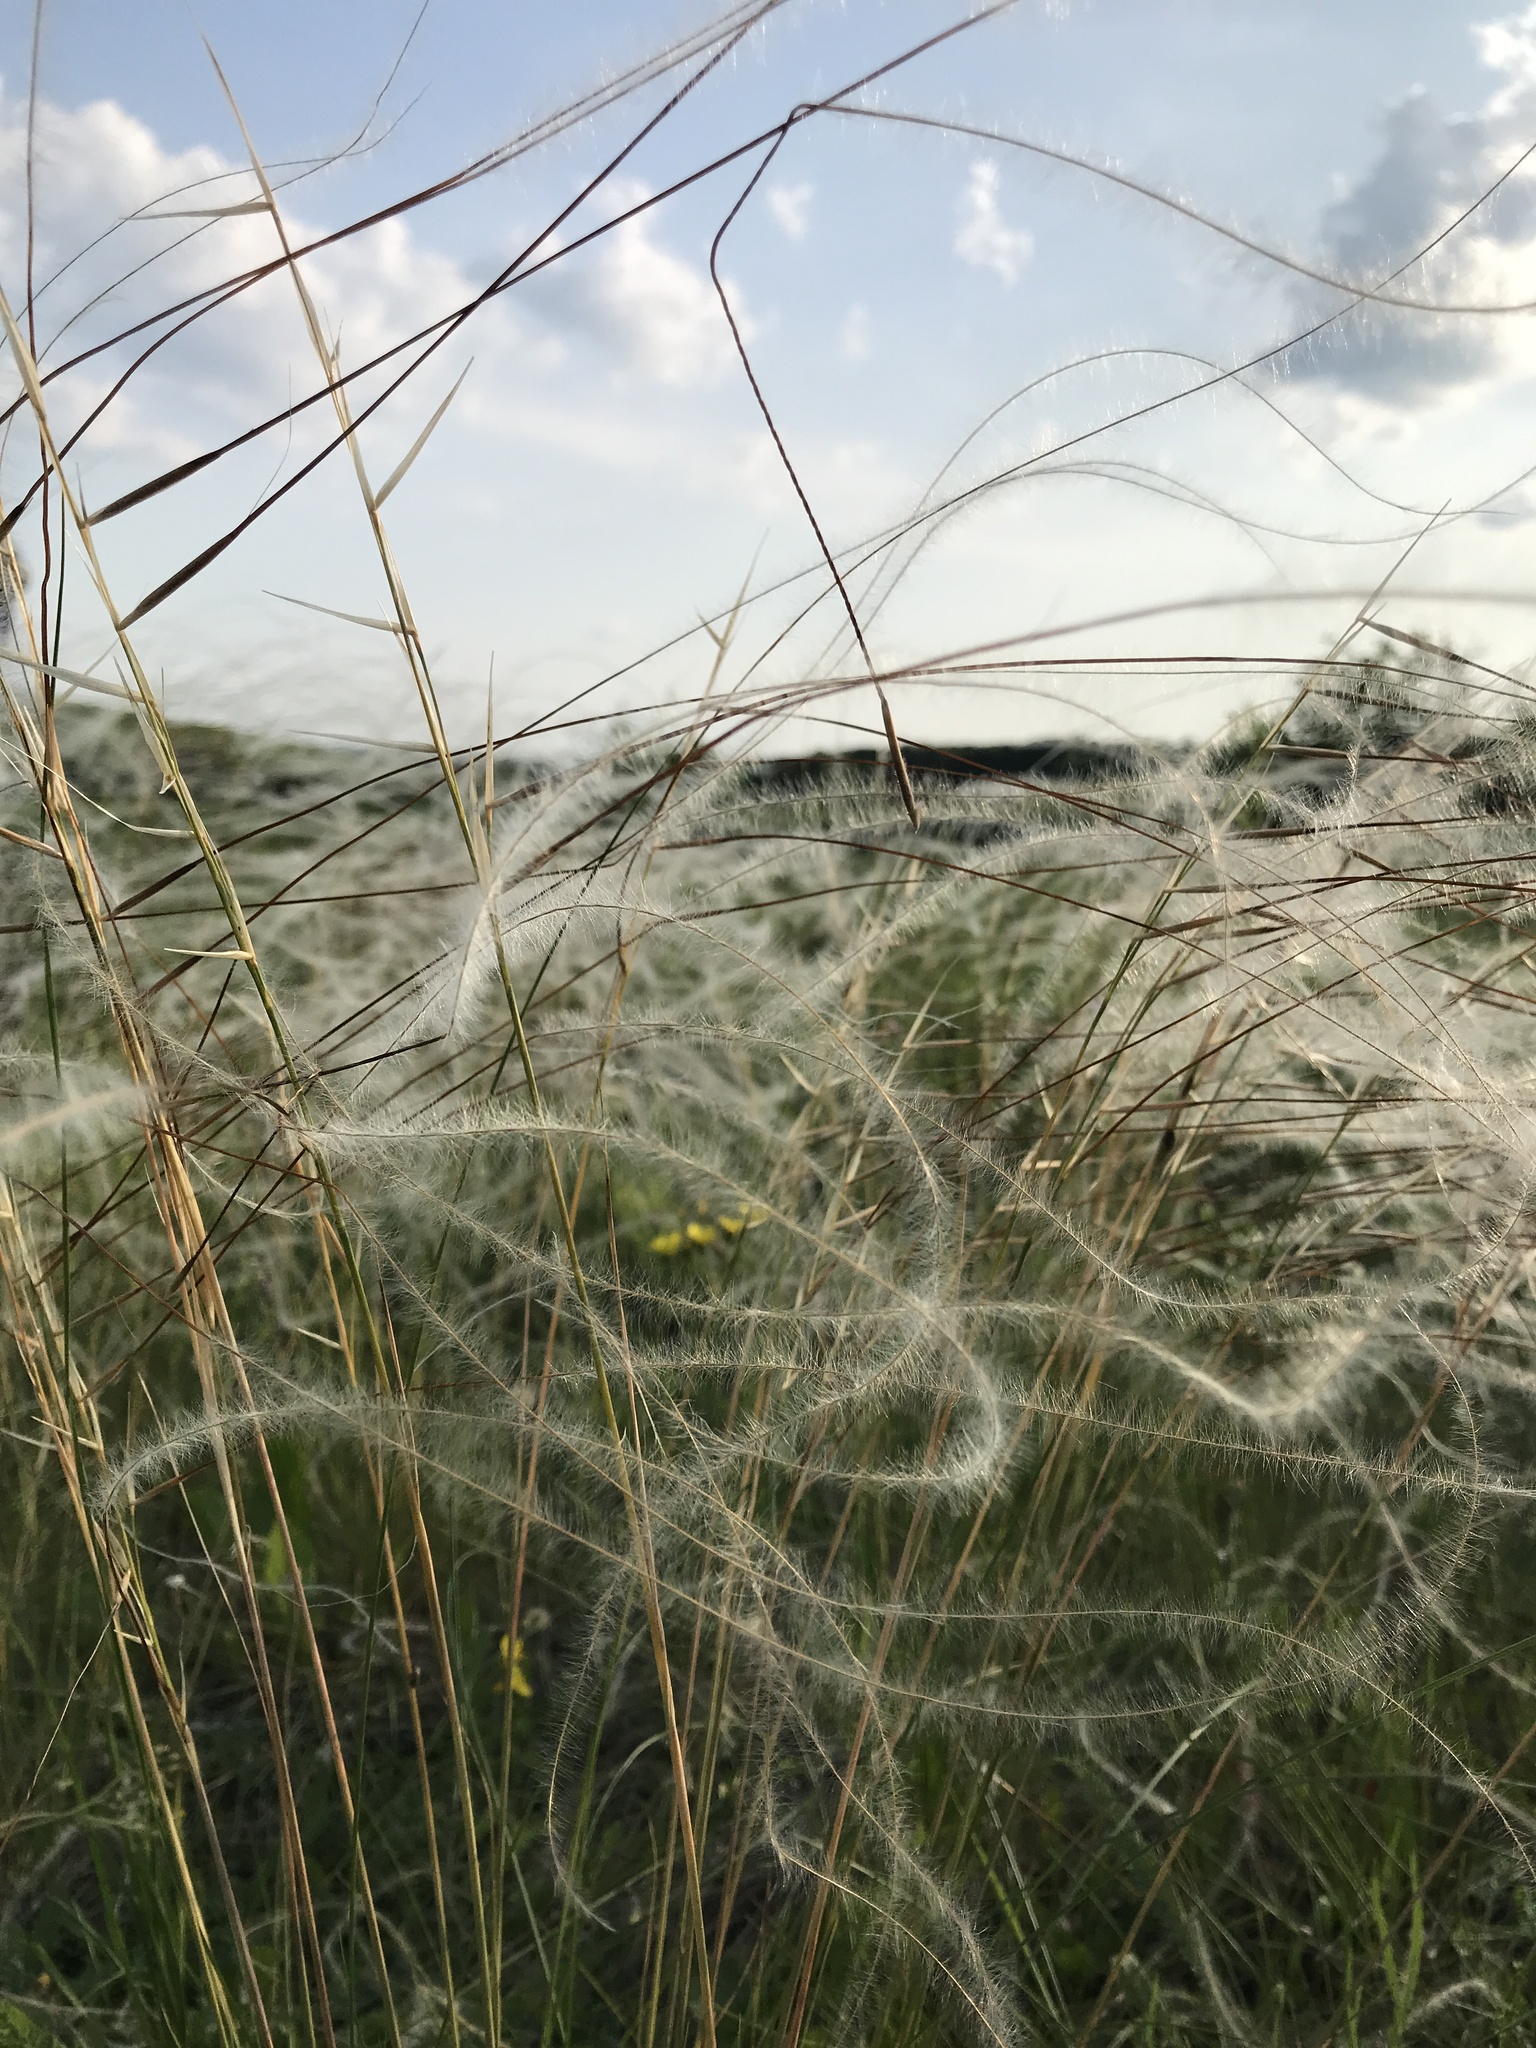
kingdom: Plantae
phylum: Tracheophyta
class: Liliopsida
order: Poales
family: Poaceae
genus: Stipa
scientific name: Stipa pennata
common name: European feather grass
